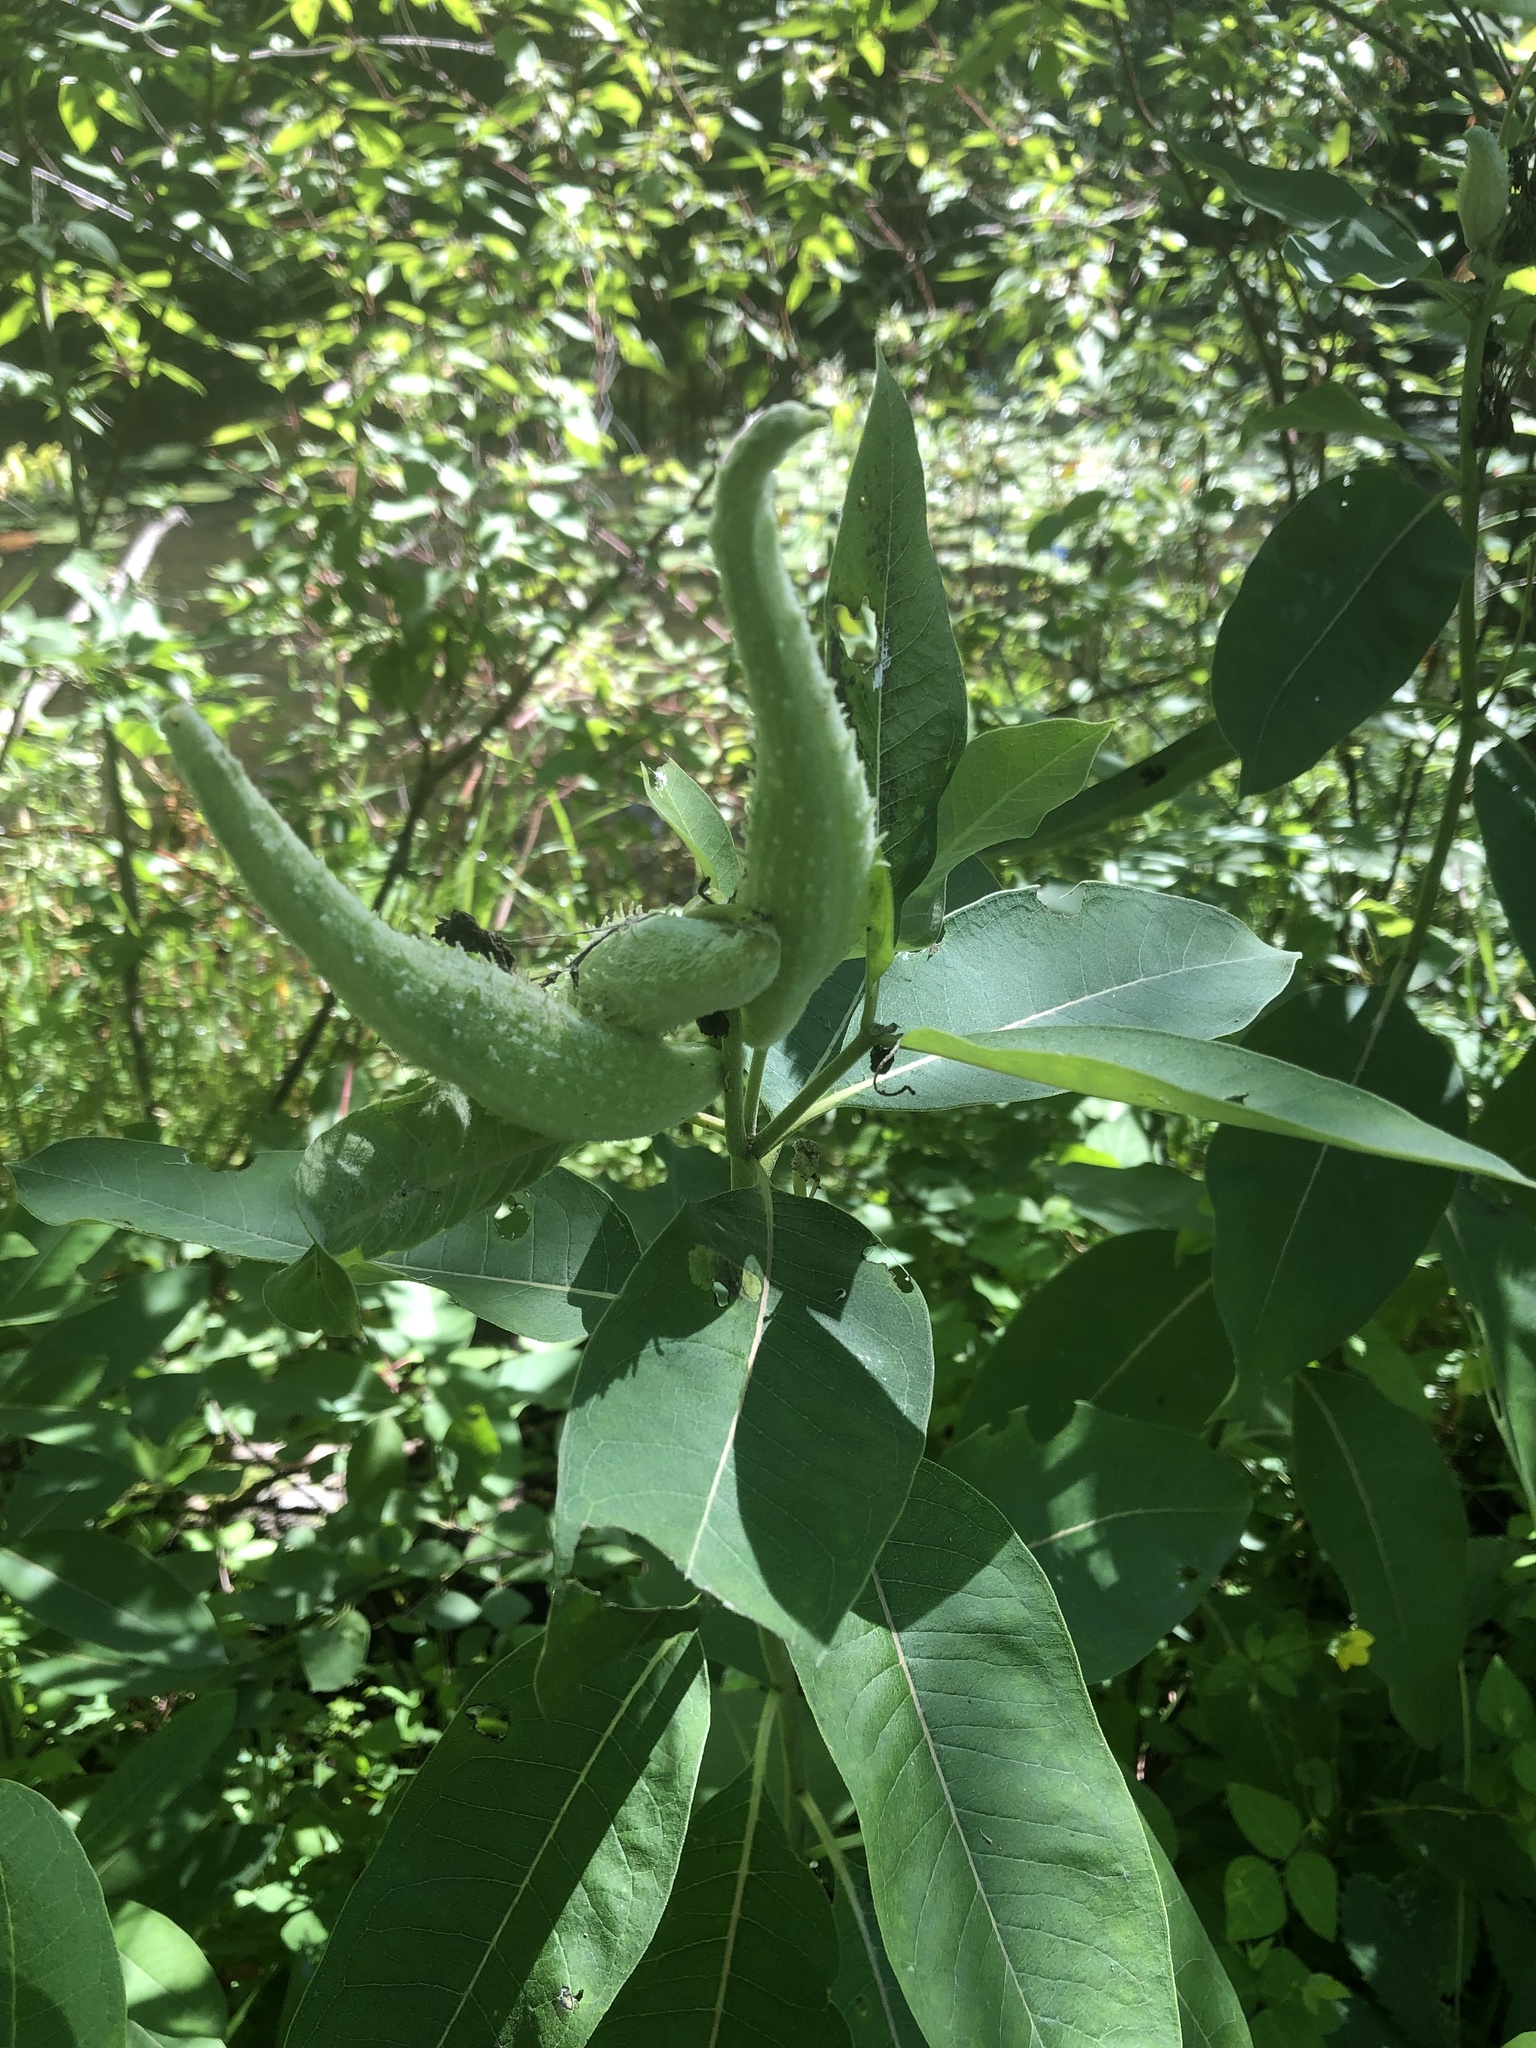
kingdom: Plantae
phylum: Tracheophyta
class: Magnoliopsida
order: Gentianales
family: Apocynaceae
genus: Asclepias
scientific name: Asclepias syriaca
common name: Common milkweed
